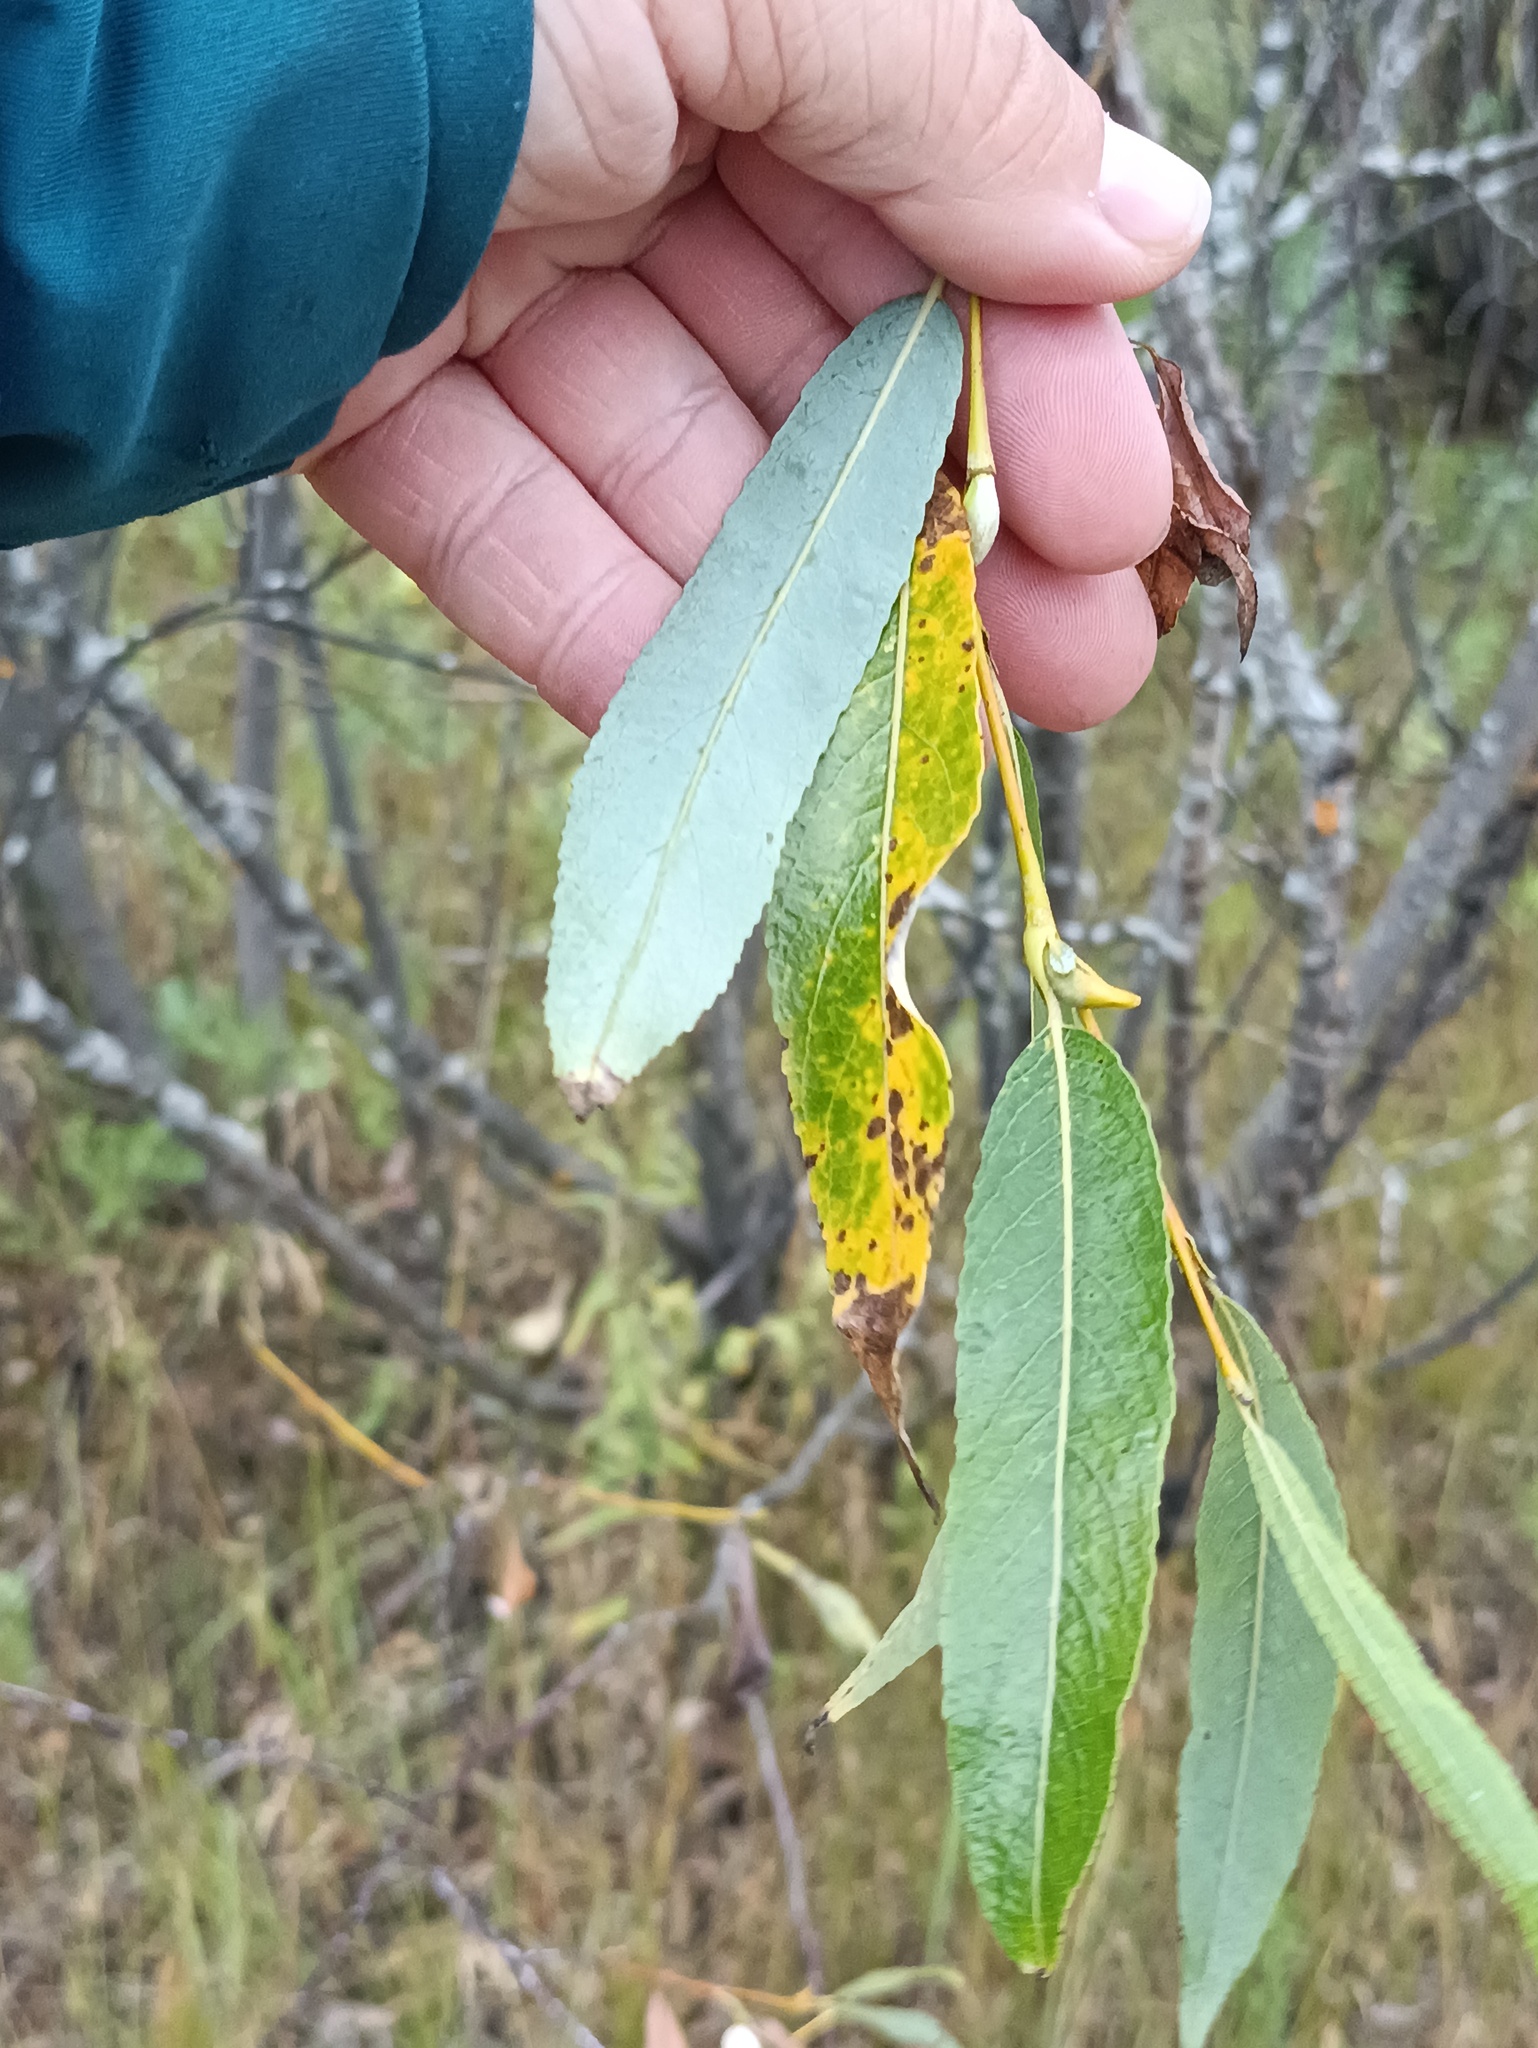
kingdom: Plantae
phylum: Tracheophyta
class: Magnoliopsida
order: Malpighiales
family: Salicaceae
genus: Salix
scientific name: Salix acutifolia
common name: Siberian violet-willow
